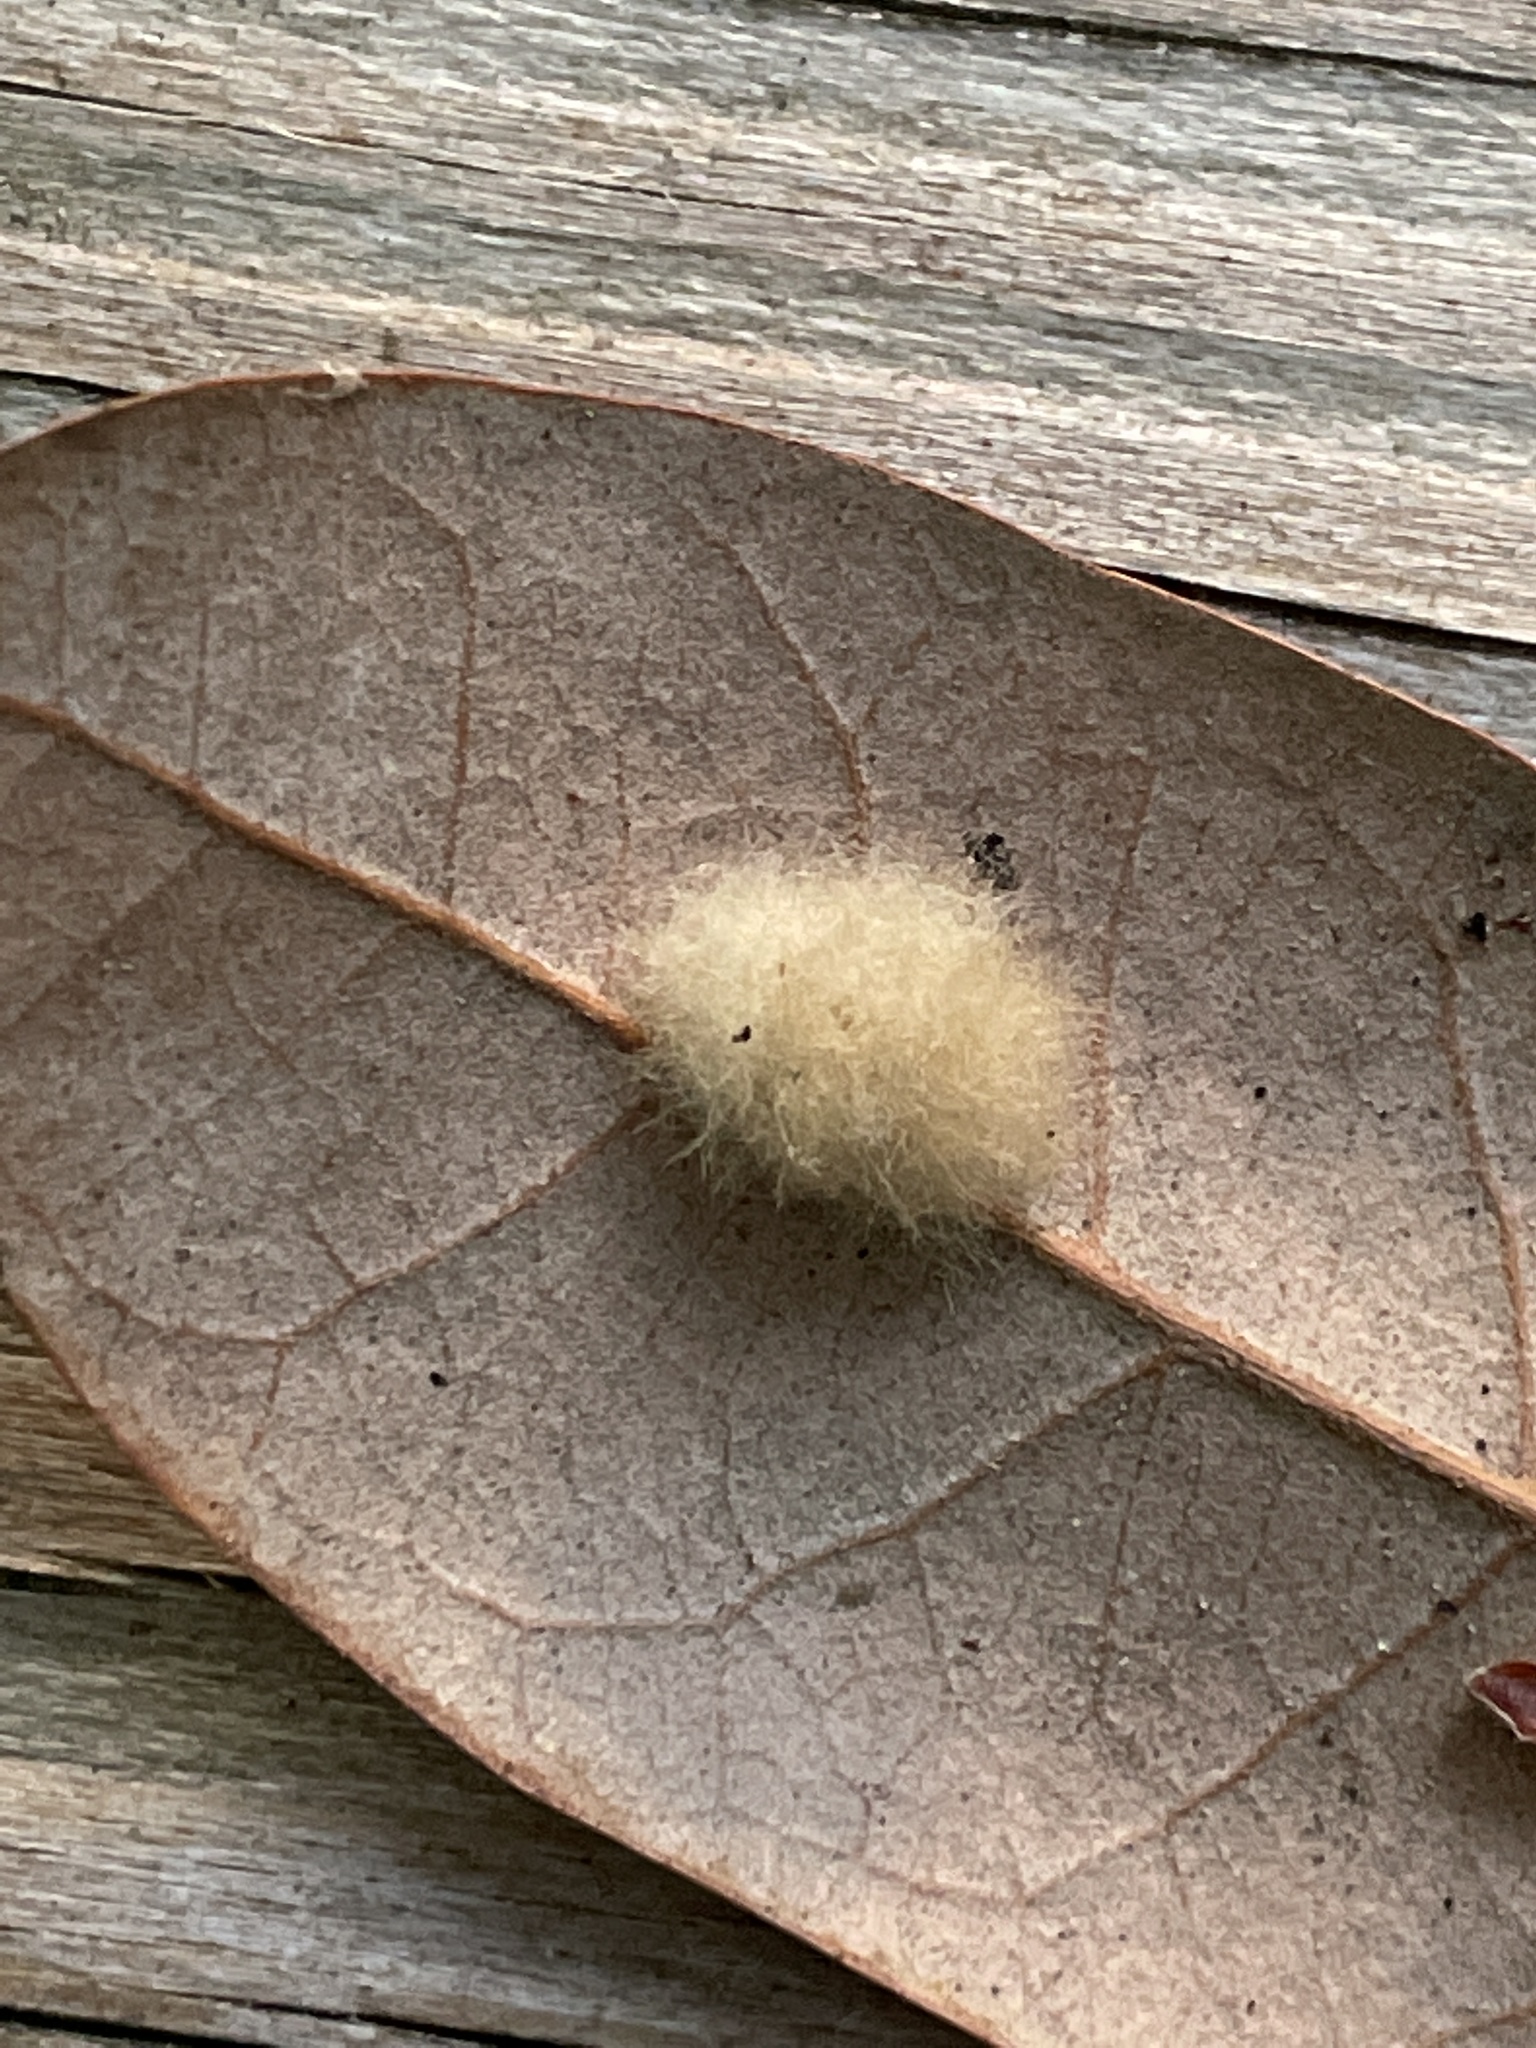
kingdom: Animalia
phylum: Arthropoda
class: Insecta
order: Hymenoptera
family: Cynipidae
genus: Andricus
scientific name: Andricus Druon quercuslanigerum
